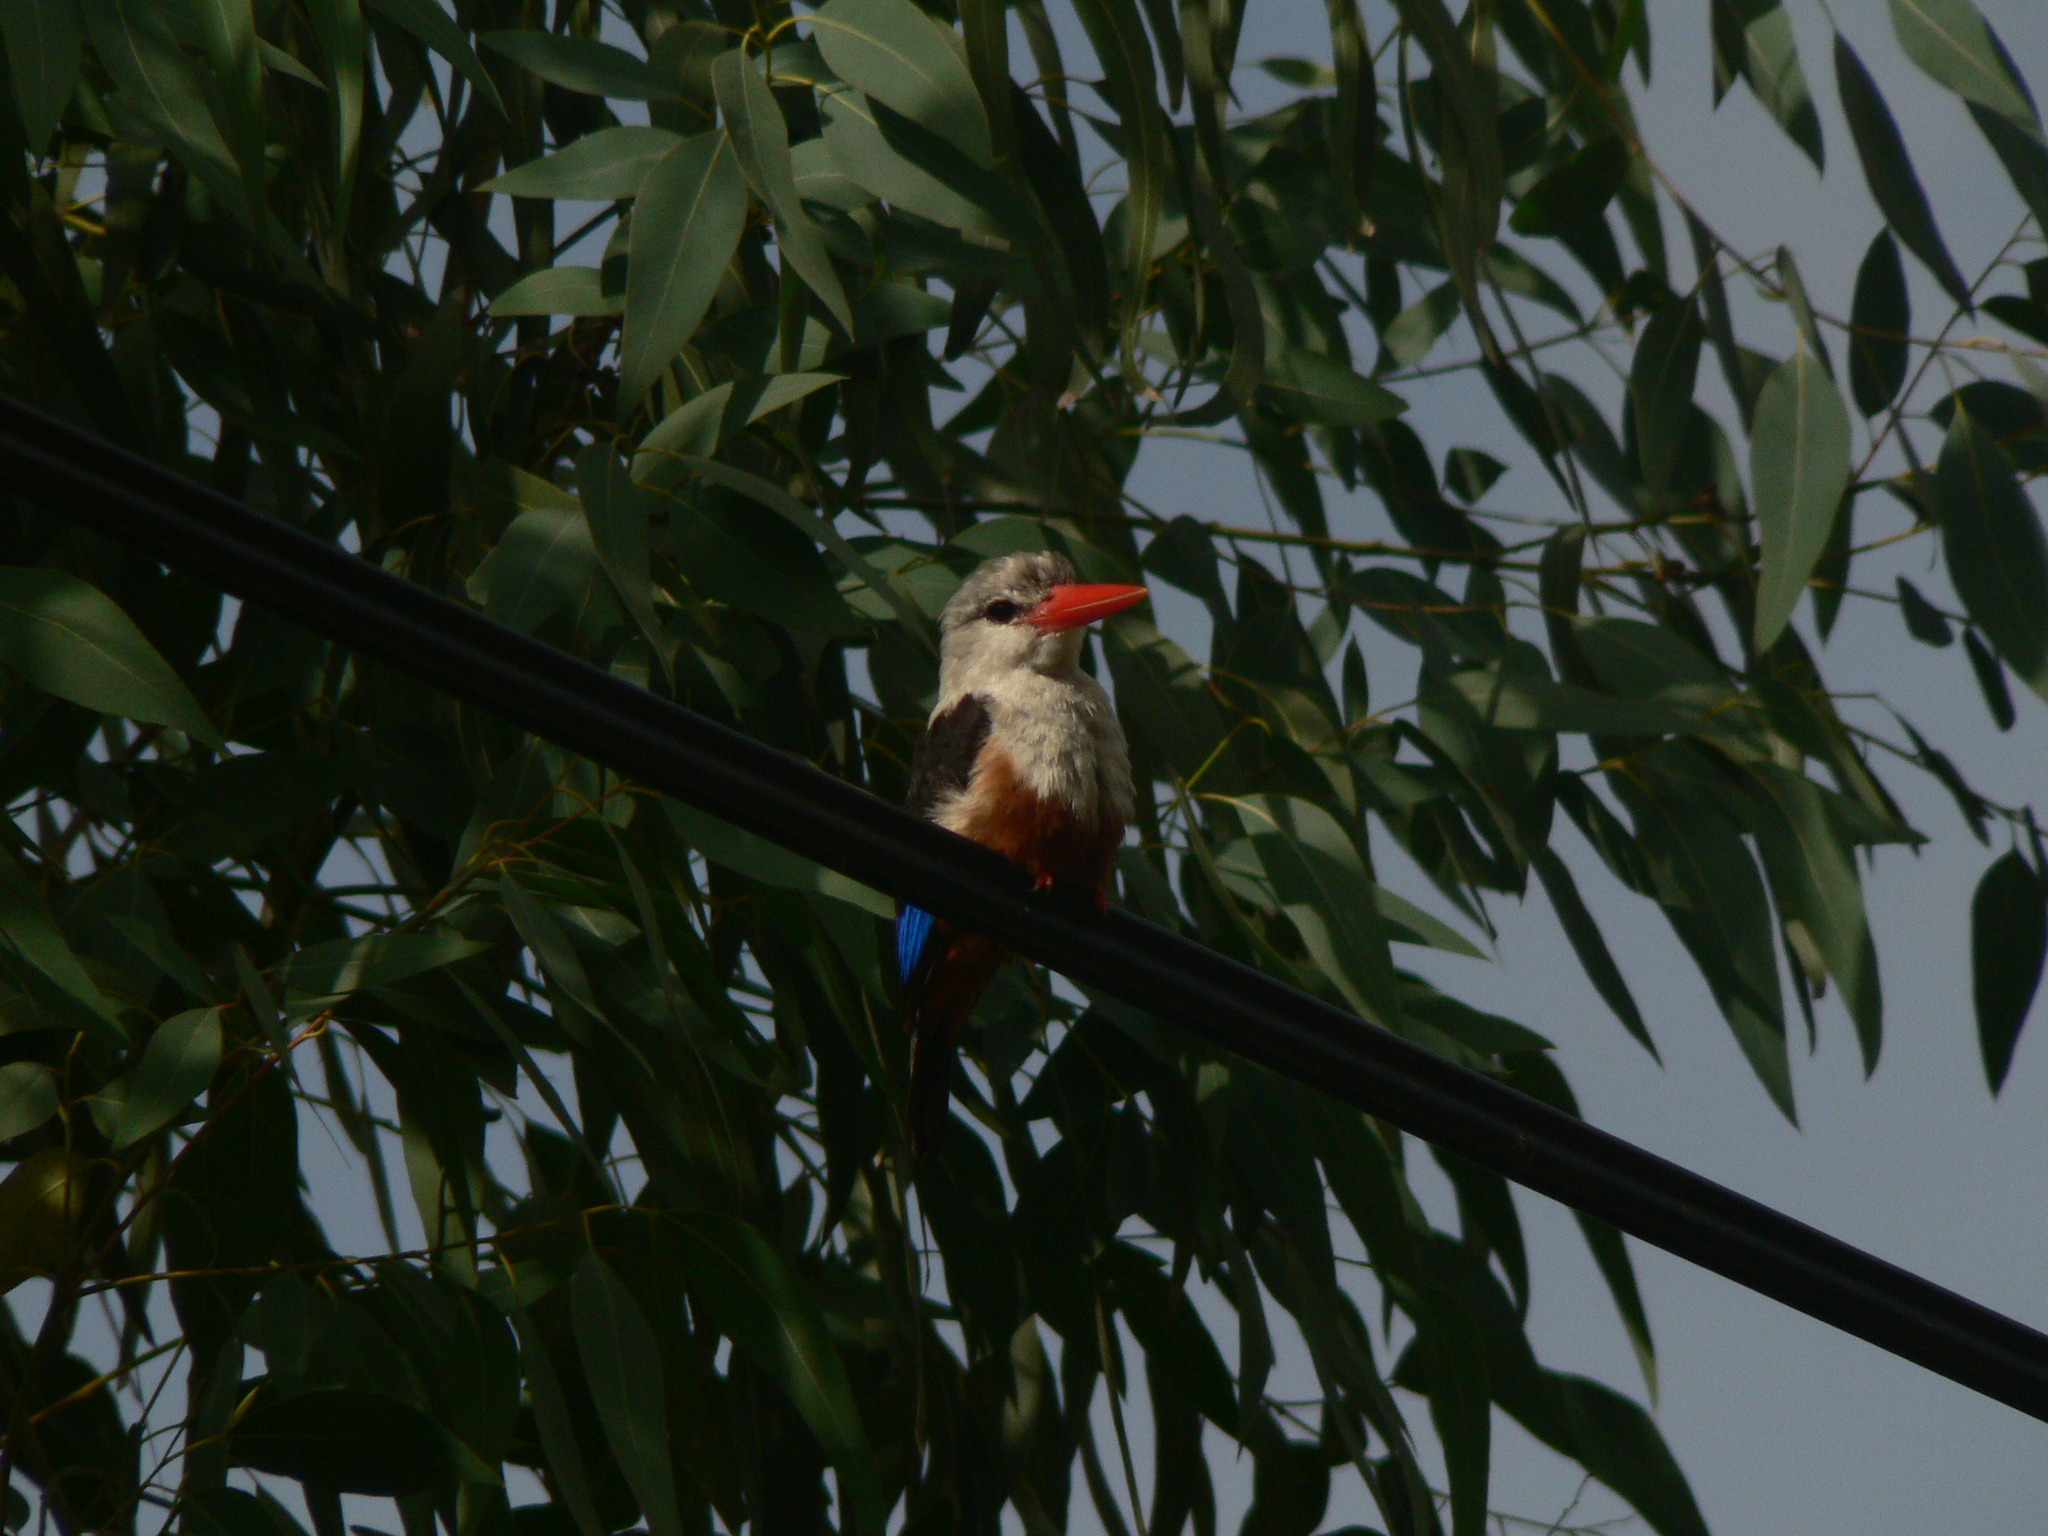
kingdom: Animalia
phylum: Chordata
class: Aves
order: Coraciiformes
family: Alcedinidae
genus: Halcyon
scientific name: Halcyon leucocephala
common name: Grey-headed kingfisher
